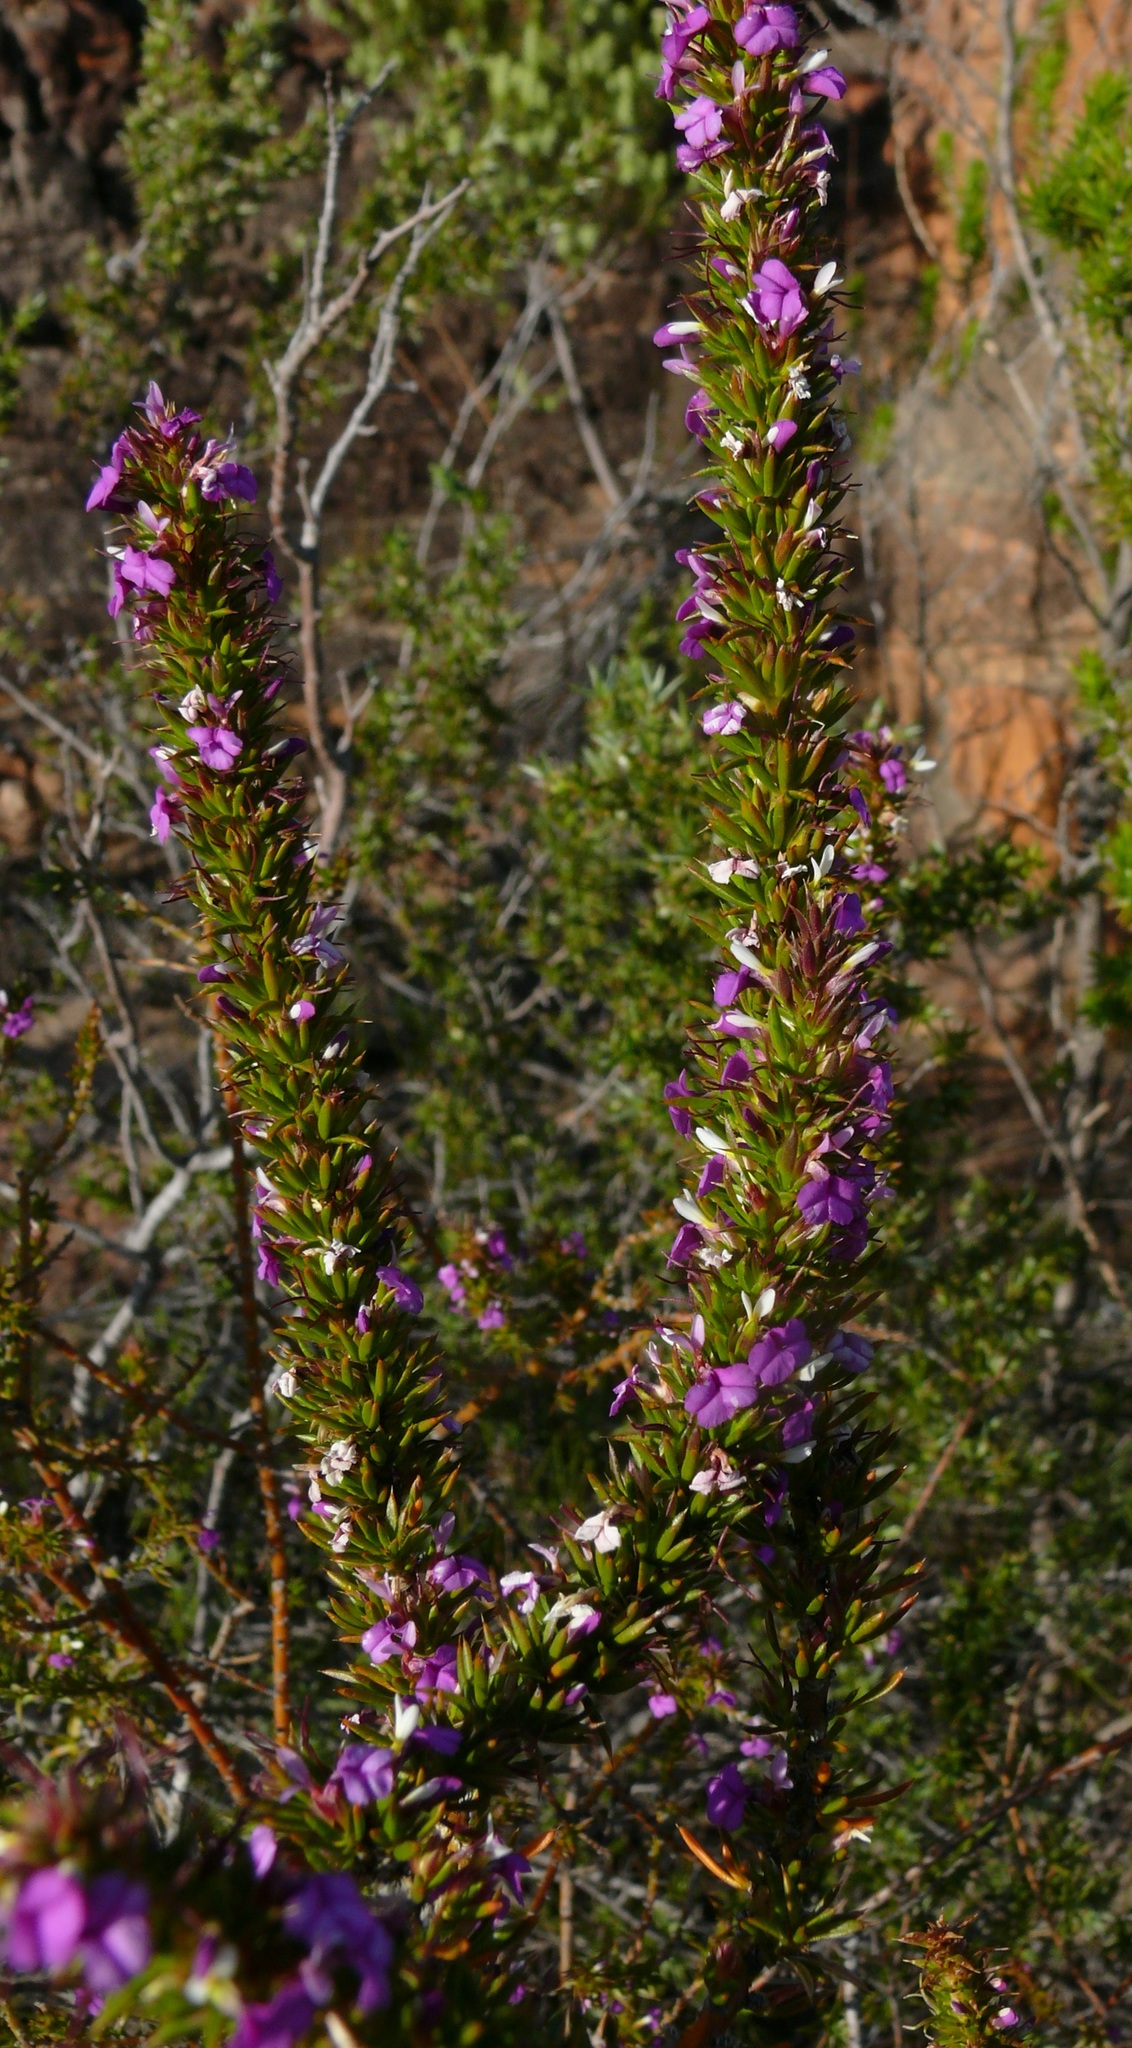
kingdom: Plantae
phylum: Tracheophyta
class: Magnoliopsida
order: Fabales
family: Polygalaceae
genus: Muraltia
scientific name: Muraltia heisteria
